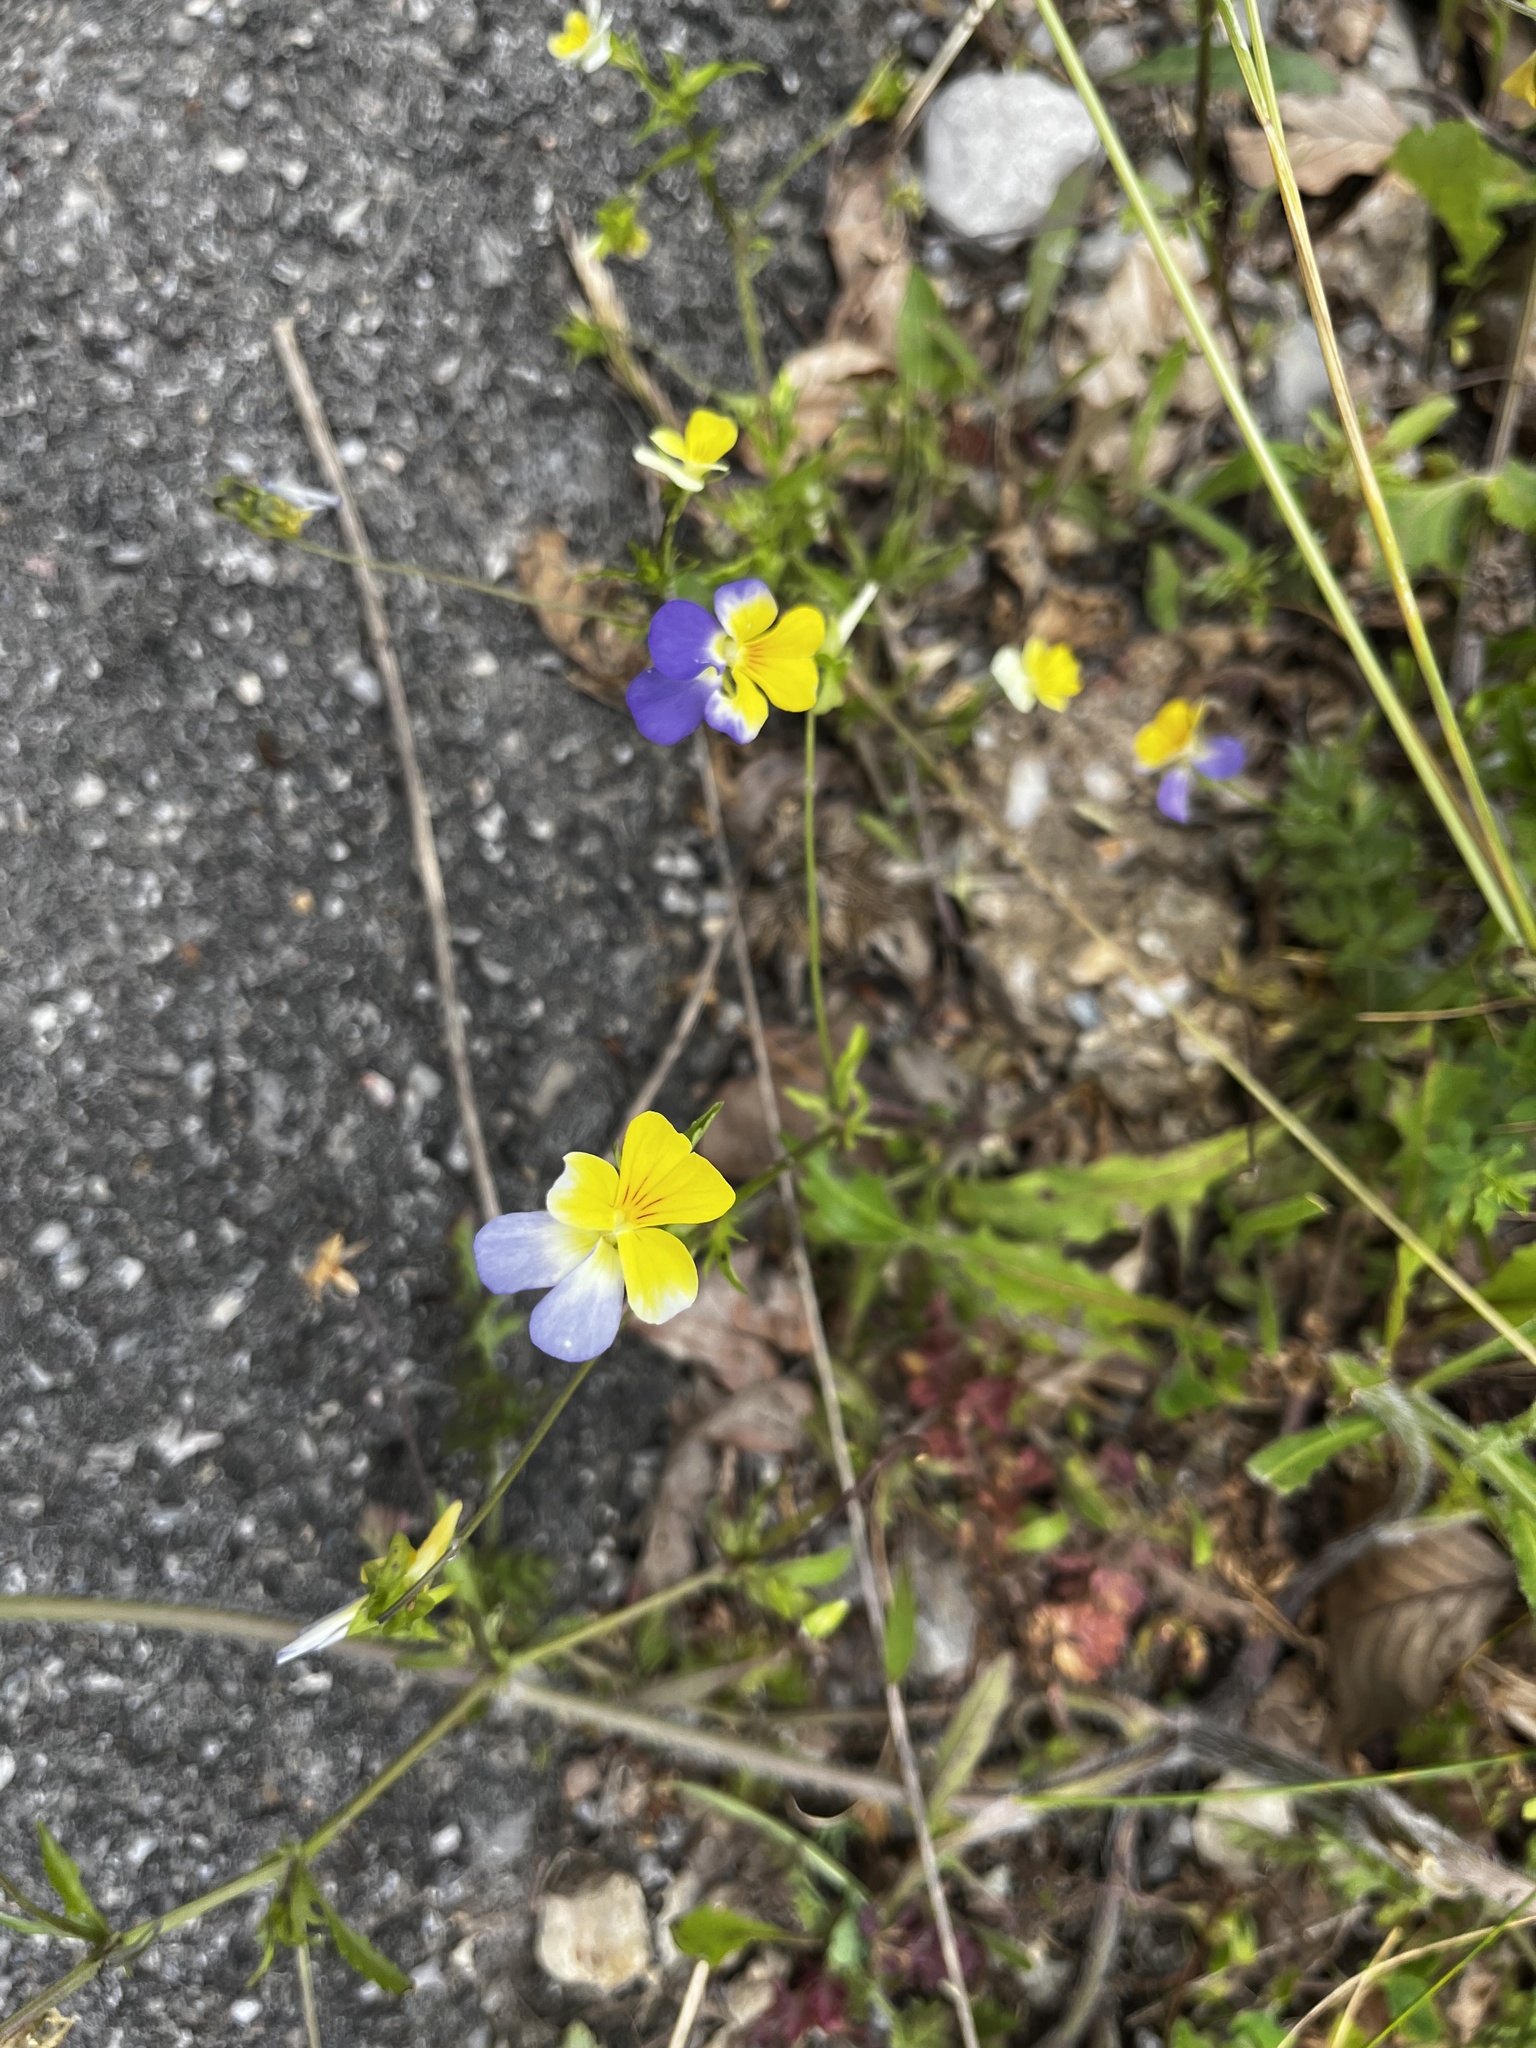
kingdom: Plantae
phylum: Tracheophyta
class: Magnoliopsida
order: Malpighiales
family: Violaceae
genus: Viola
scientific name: Viola tricolor
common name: Pansy
